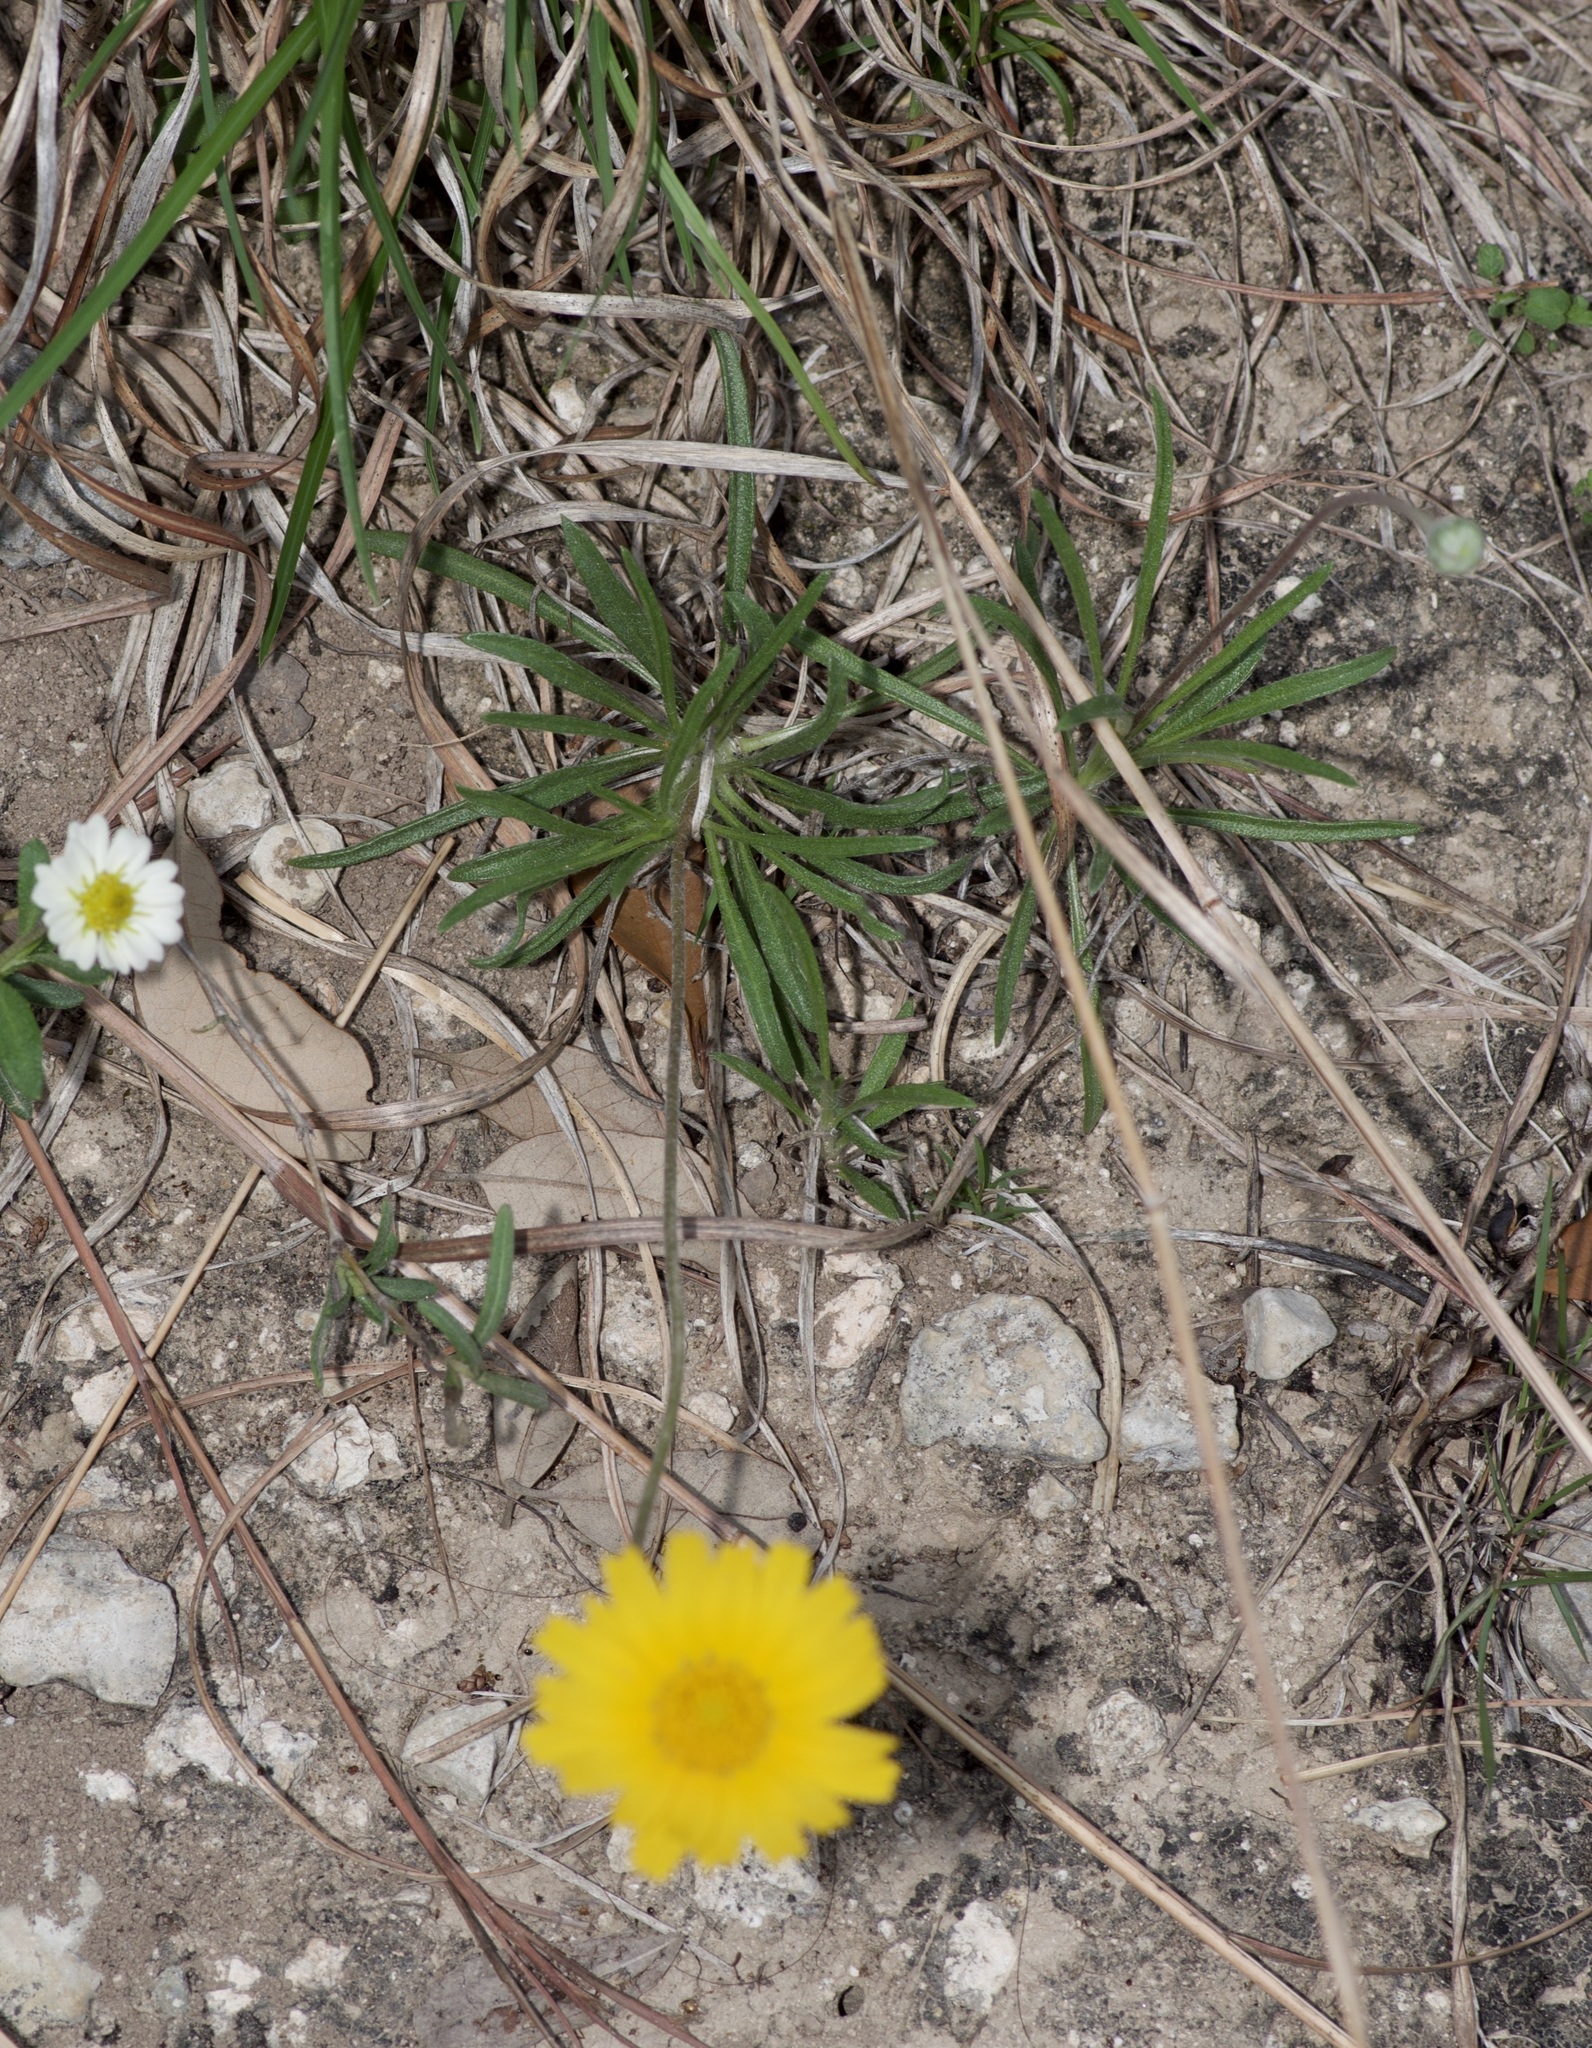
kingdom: Plantae
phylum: Tracheophyta
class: Magnoliopsida
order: Asterales
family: Asteraceae
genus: Tetraneuris
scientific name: Tetraneuris scaposa
